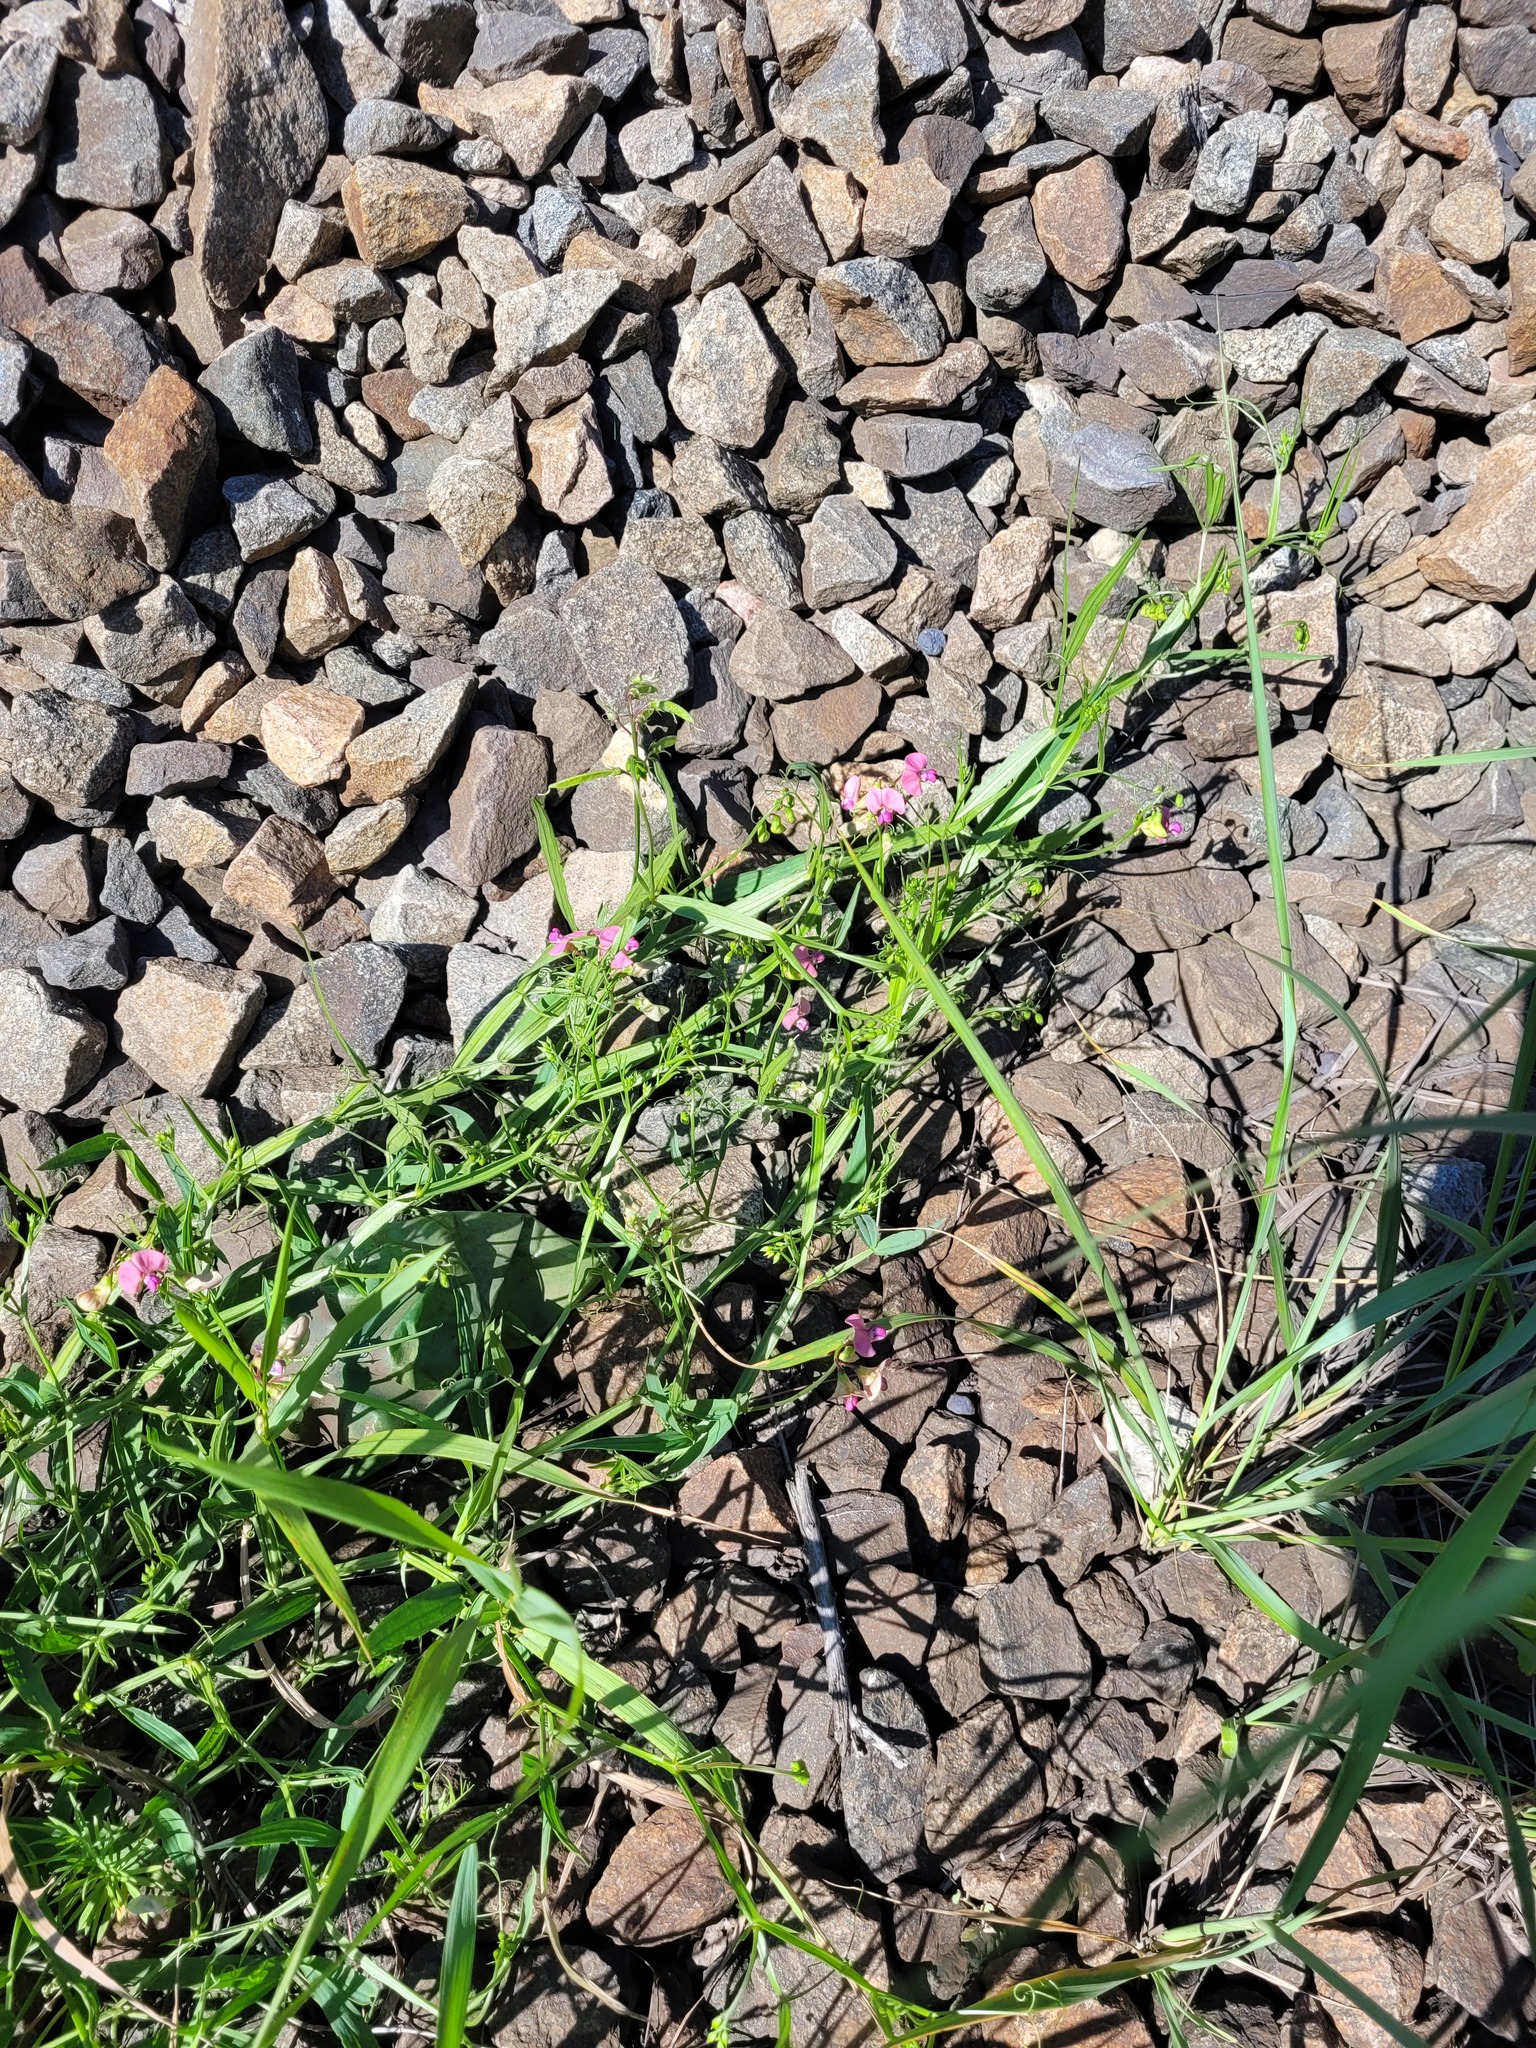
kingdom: Plantae
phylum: Tracheophyta
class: Magnoliopsida
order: Fabales
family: Fabaceae
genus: Lathyrus
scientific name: Lathyrus sylvestris
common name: Flat pea
